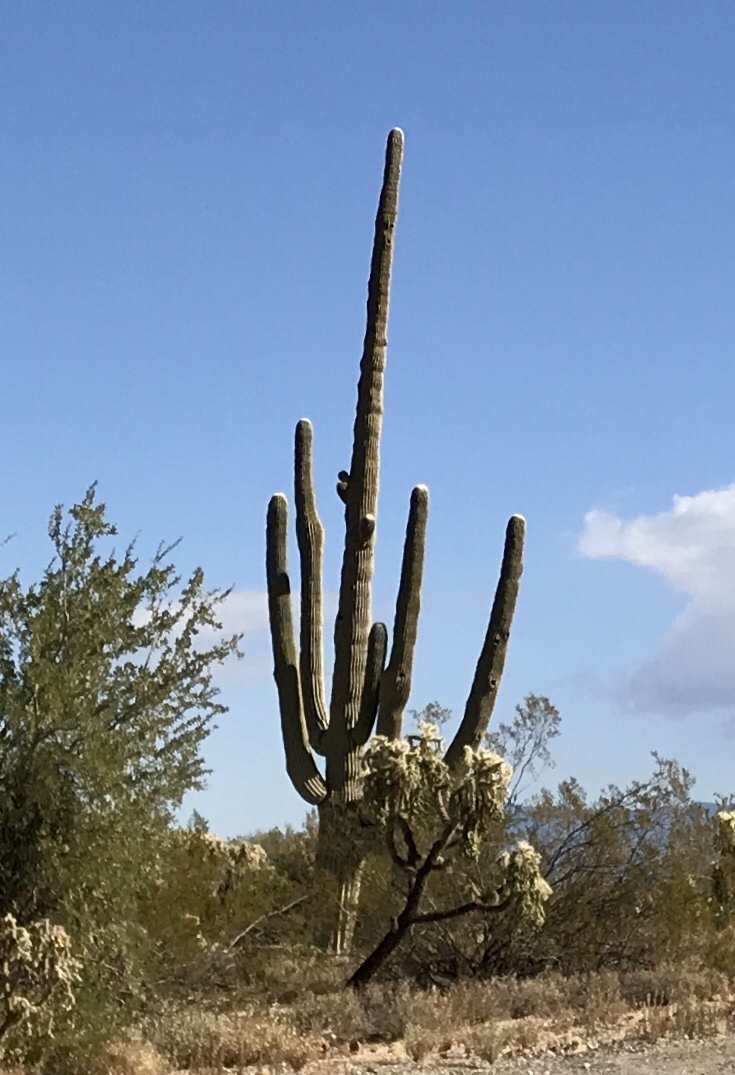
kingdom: Plantae
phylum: Tracheophyta
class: Magnoliopsida
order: Caryophyllales
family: Cactaceae
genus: Carnegiea
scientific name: Carnegiea gigantea
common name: Saguaro
